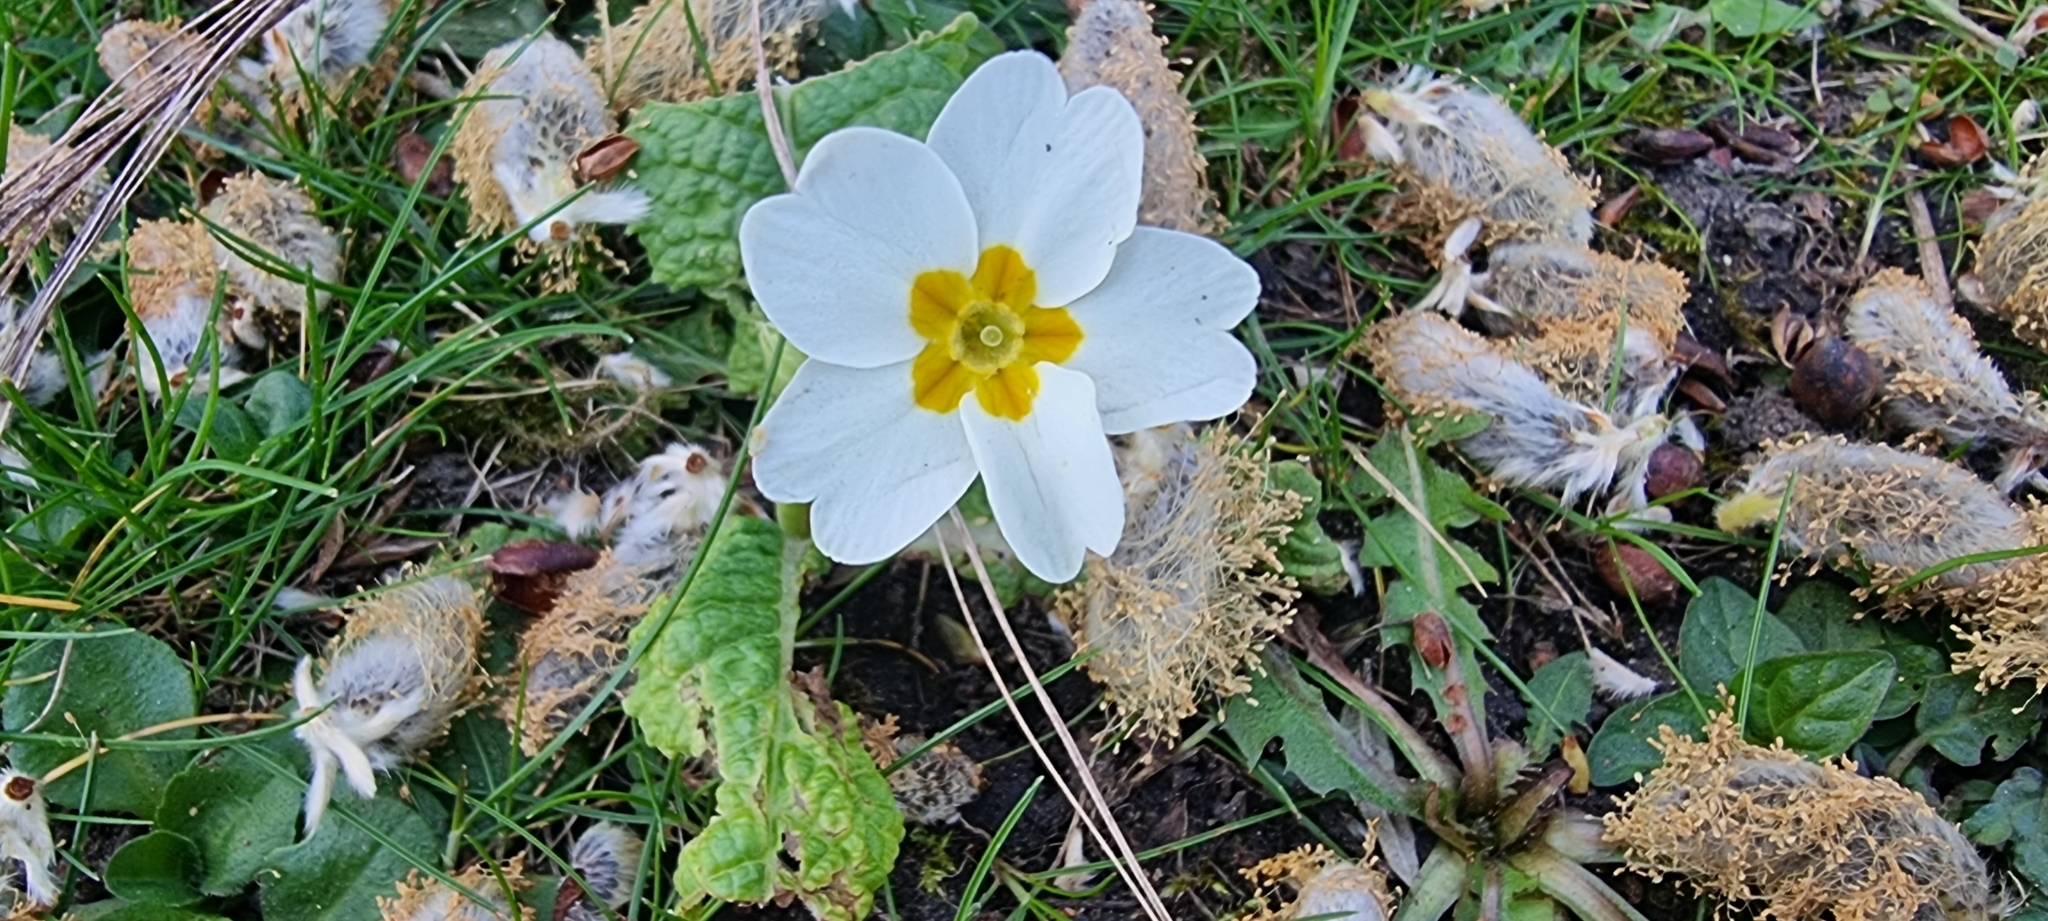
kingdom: Plantae
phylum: Tracheophyta
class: Magnoliopsida
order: Ericales
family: Primulaceae
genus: Primula
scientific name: Primula vulgaris
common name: Primrose
